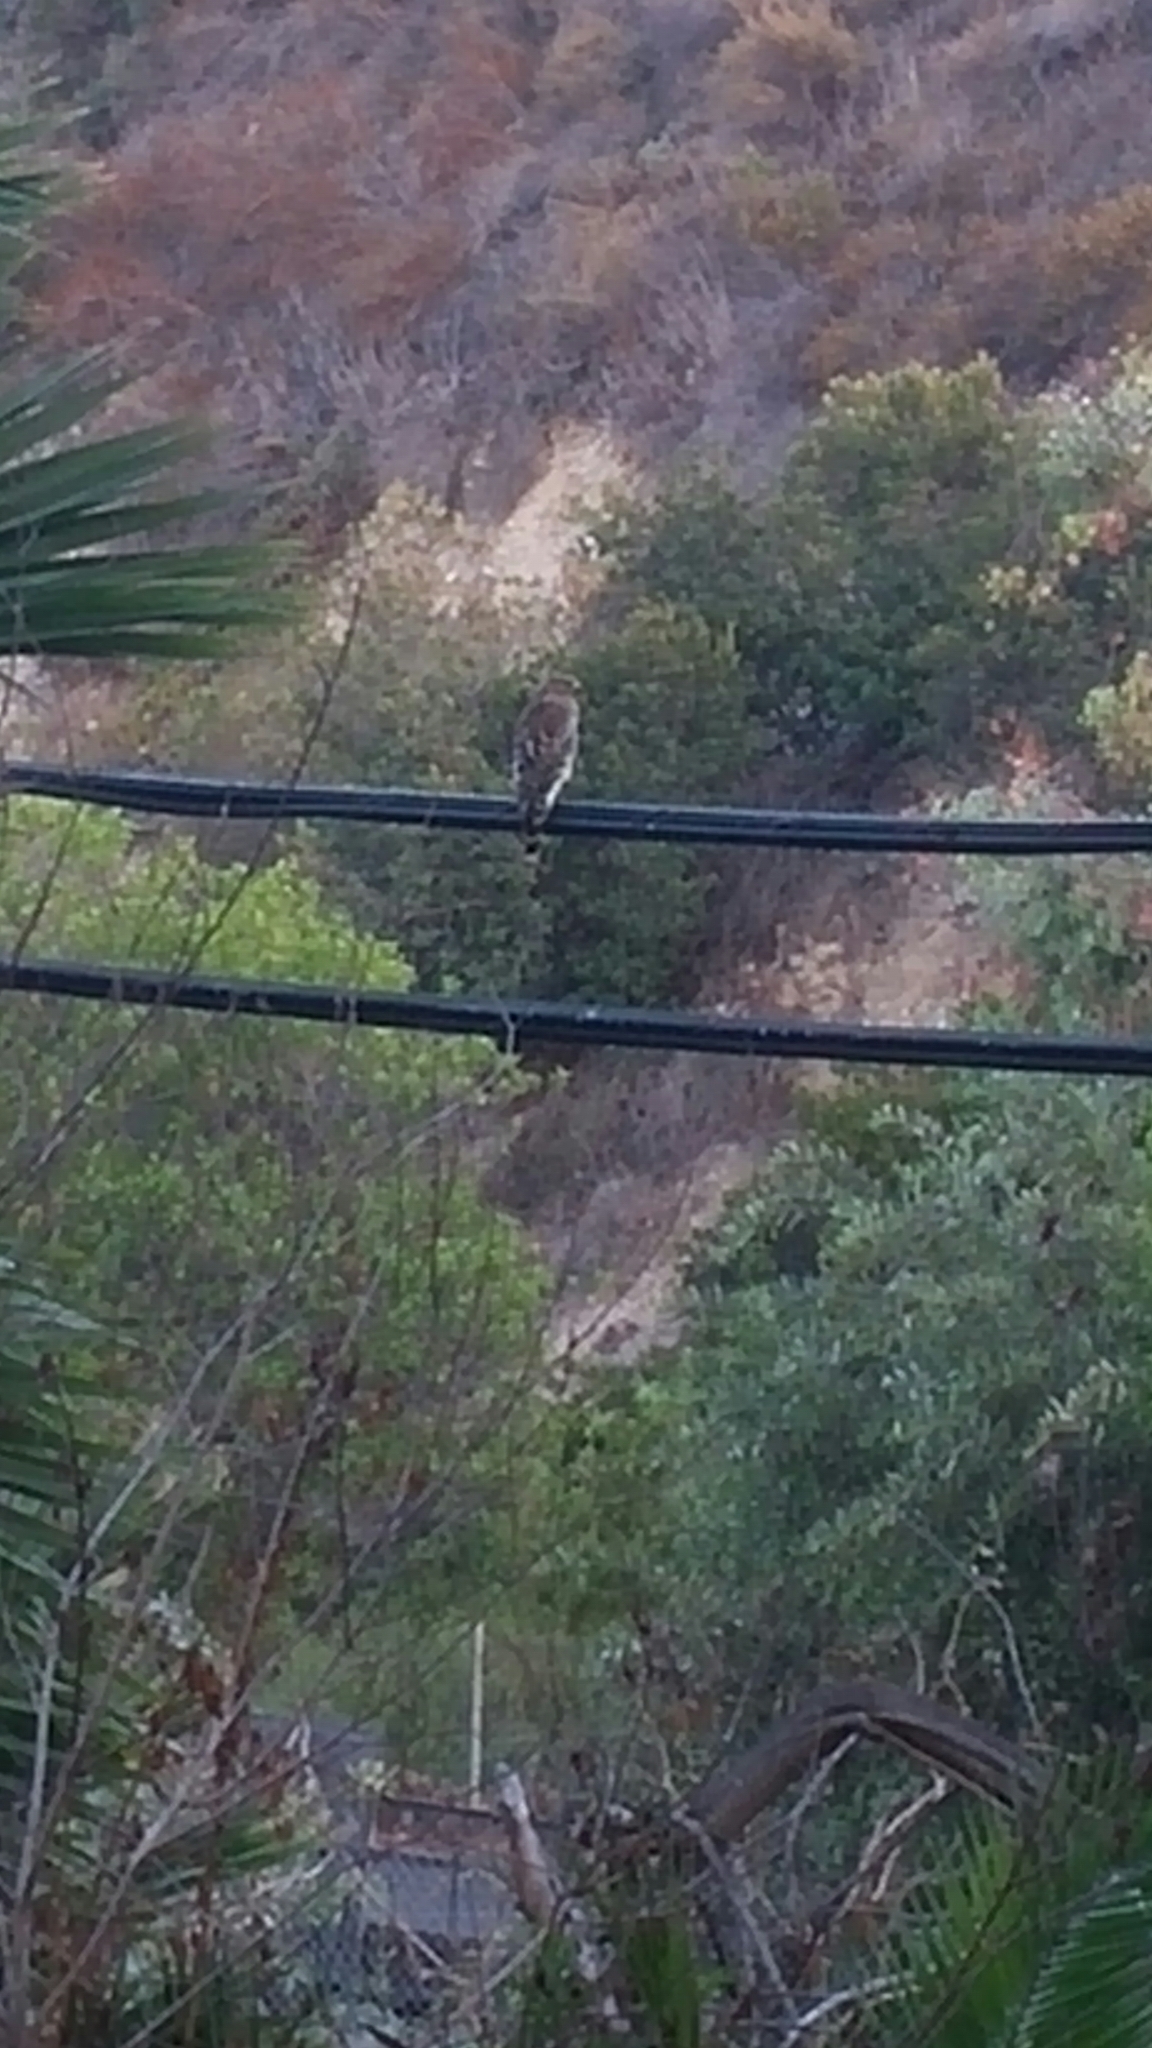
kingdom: Animalia
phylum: Chordata
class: Aves
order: Accipitriformes
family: Accipitridae
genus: Buteo
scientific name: Buteo lineatus
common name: Red-shouldered hawk
